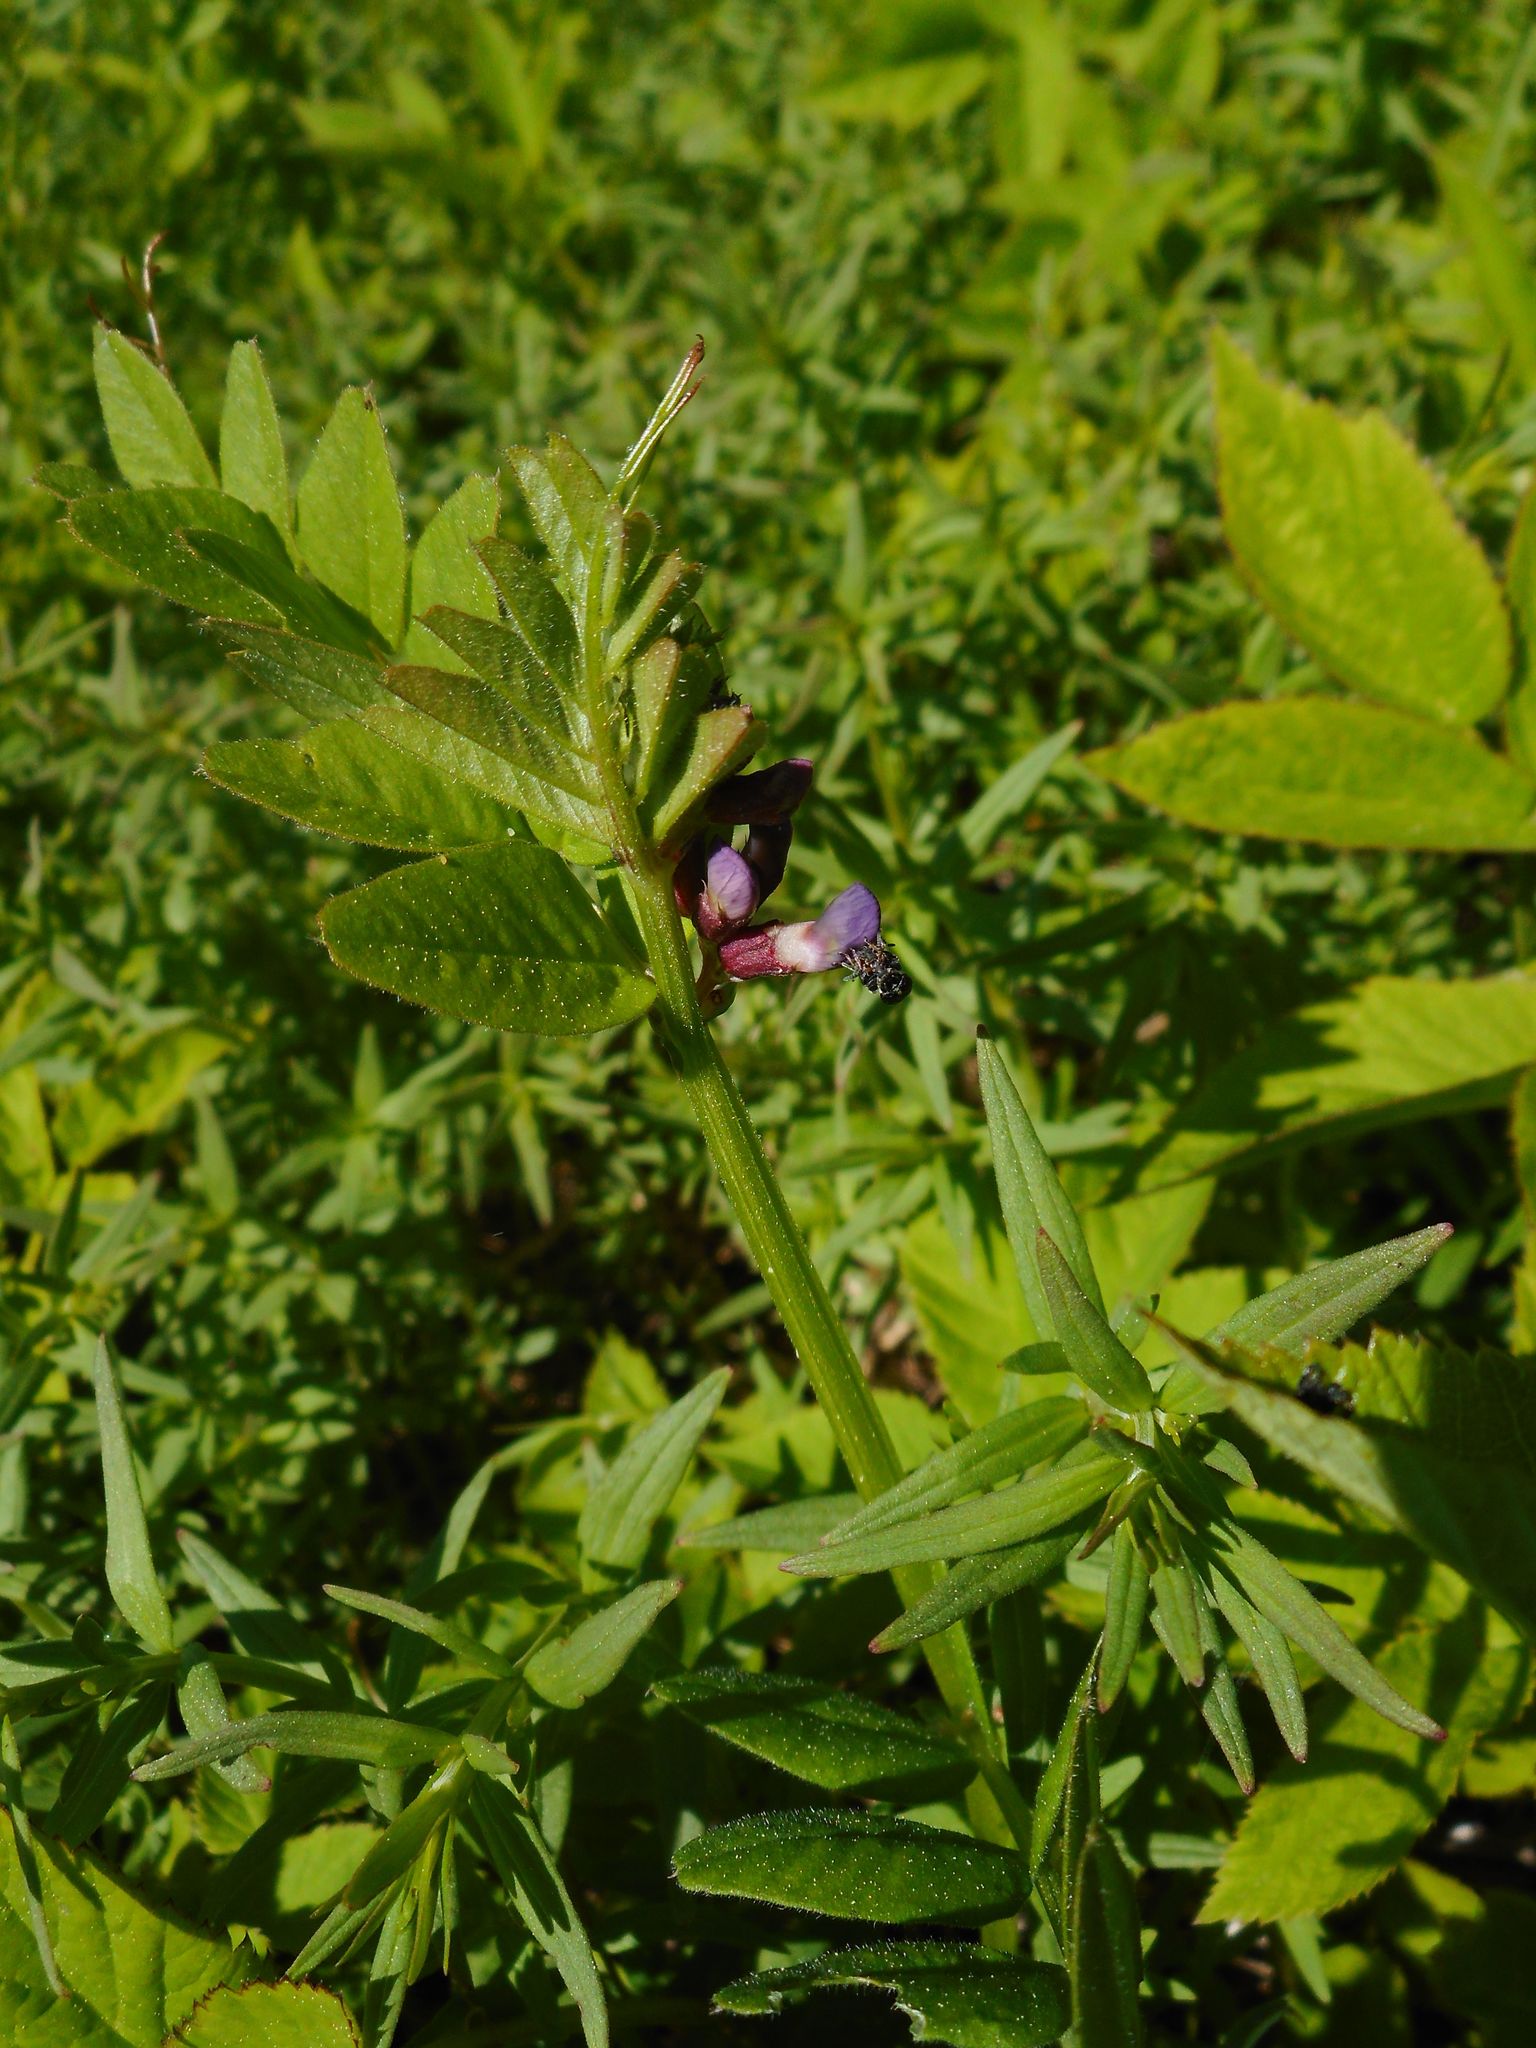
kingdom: Plantae
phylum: Tracheophyta
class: Magnoliopsida
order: Fabales
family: Fabaceae
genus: Vicia
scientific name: Vicia sepium
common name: Bush vetch
